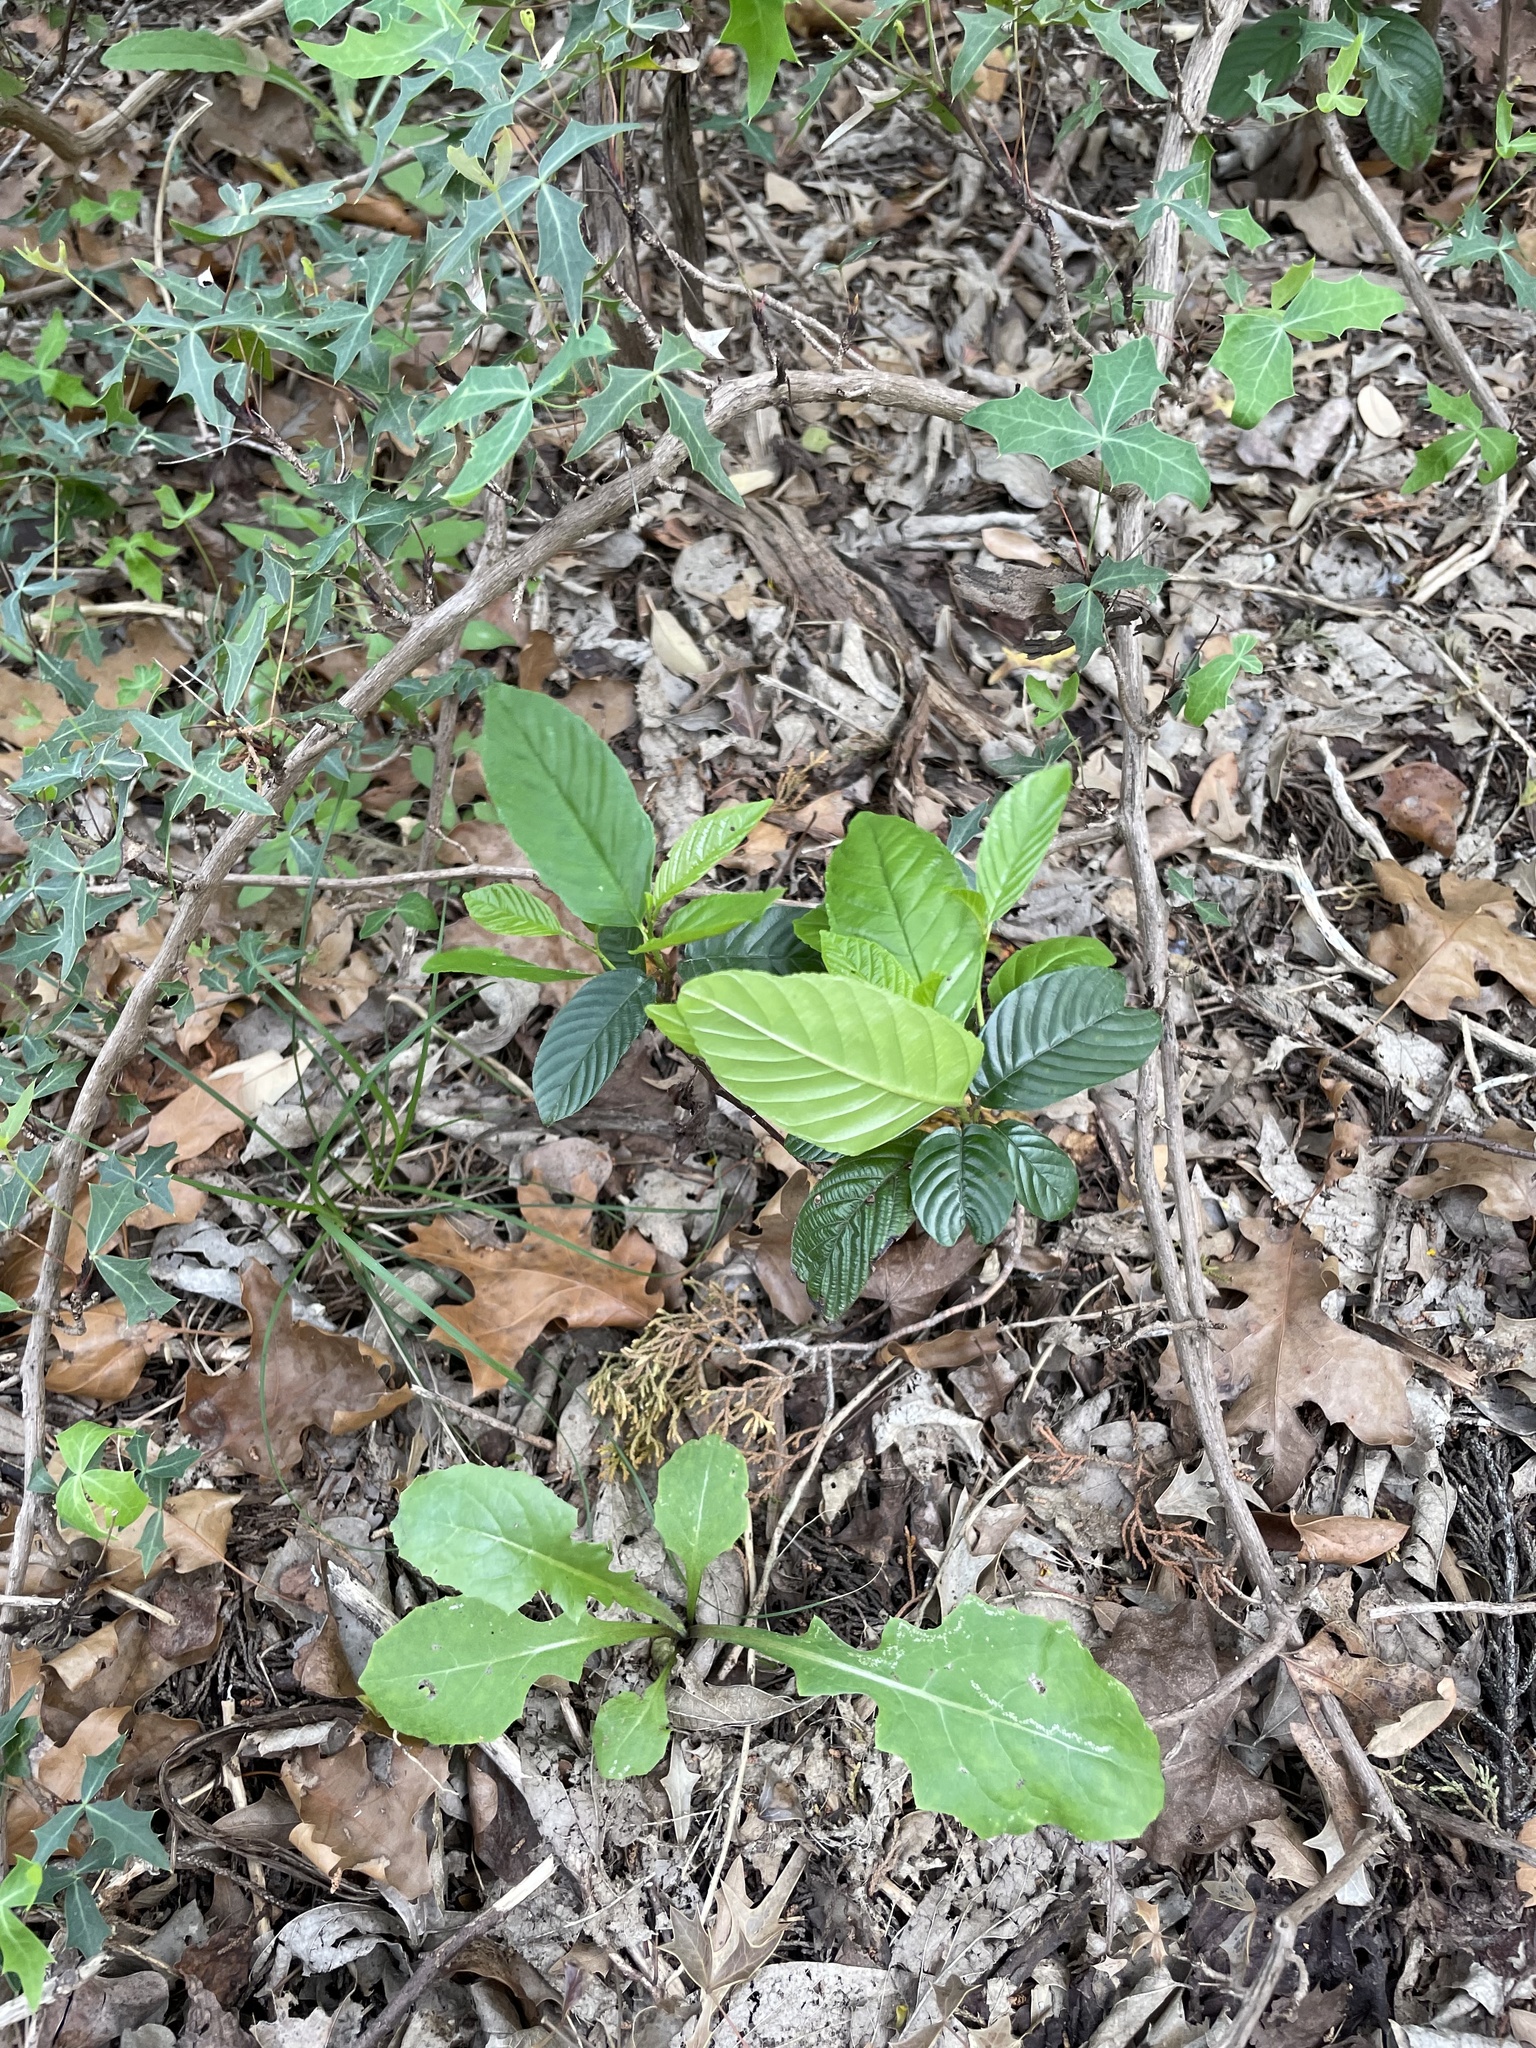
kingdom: Plantae
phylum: Tracheophyta
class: Magnoliopsida
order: Rosales
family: Rhamnaceae
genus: Frangula
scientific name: Frangula caroliniana
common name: Carolina buckthorn
